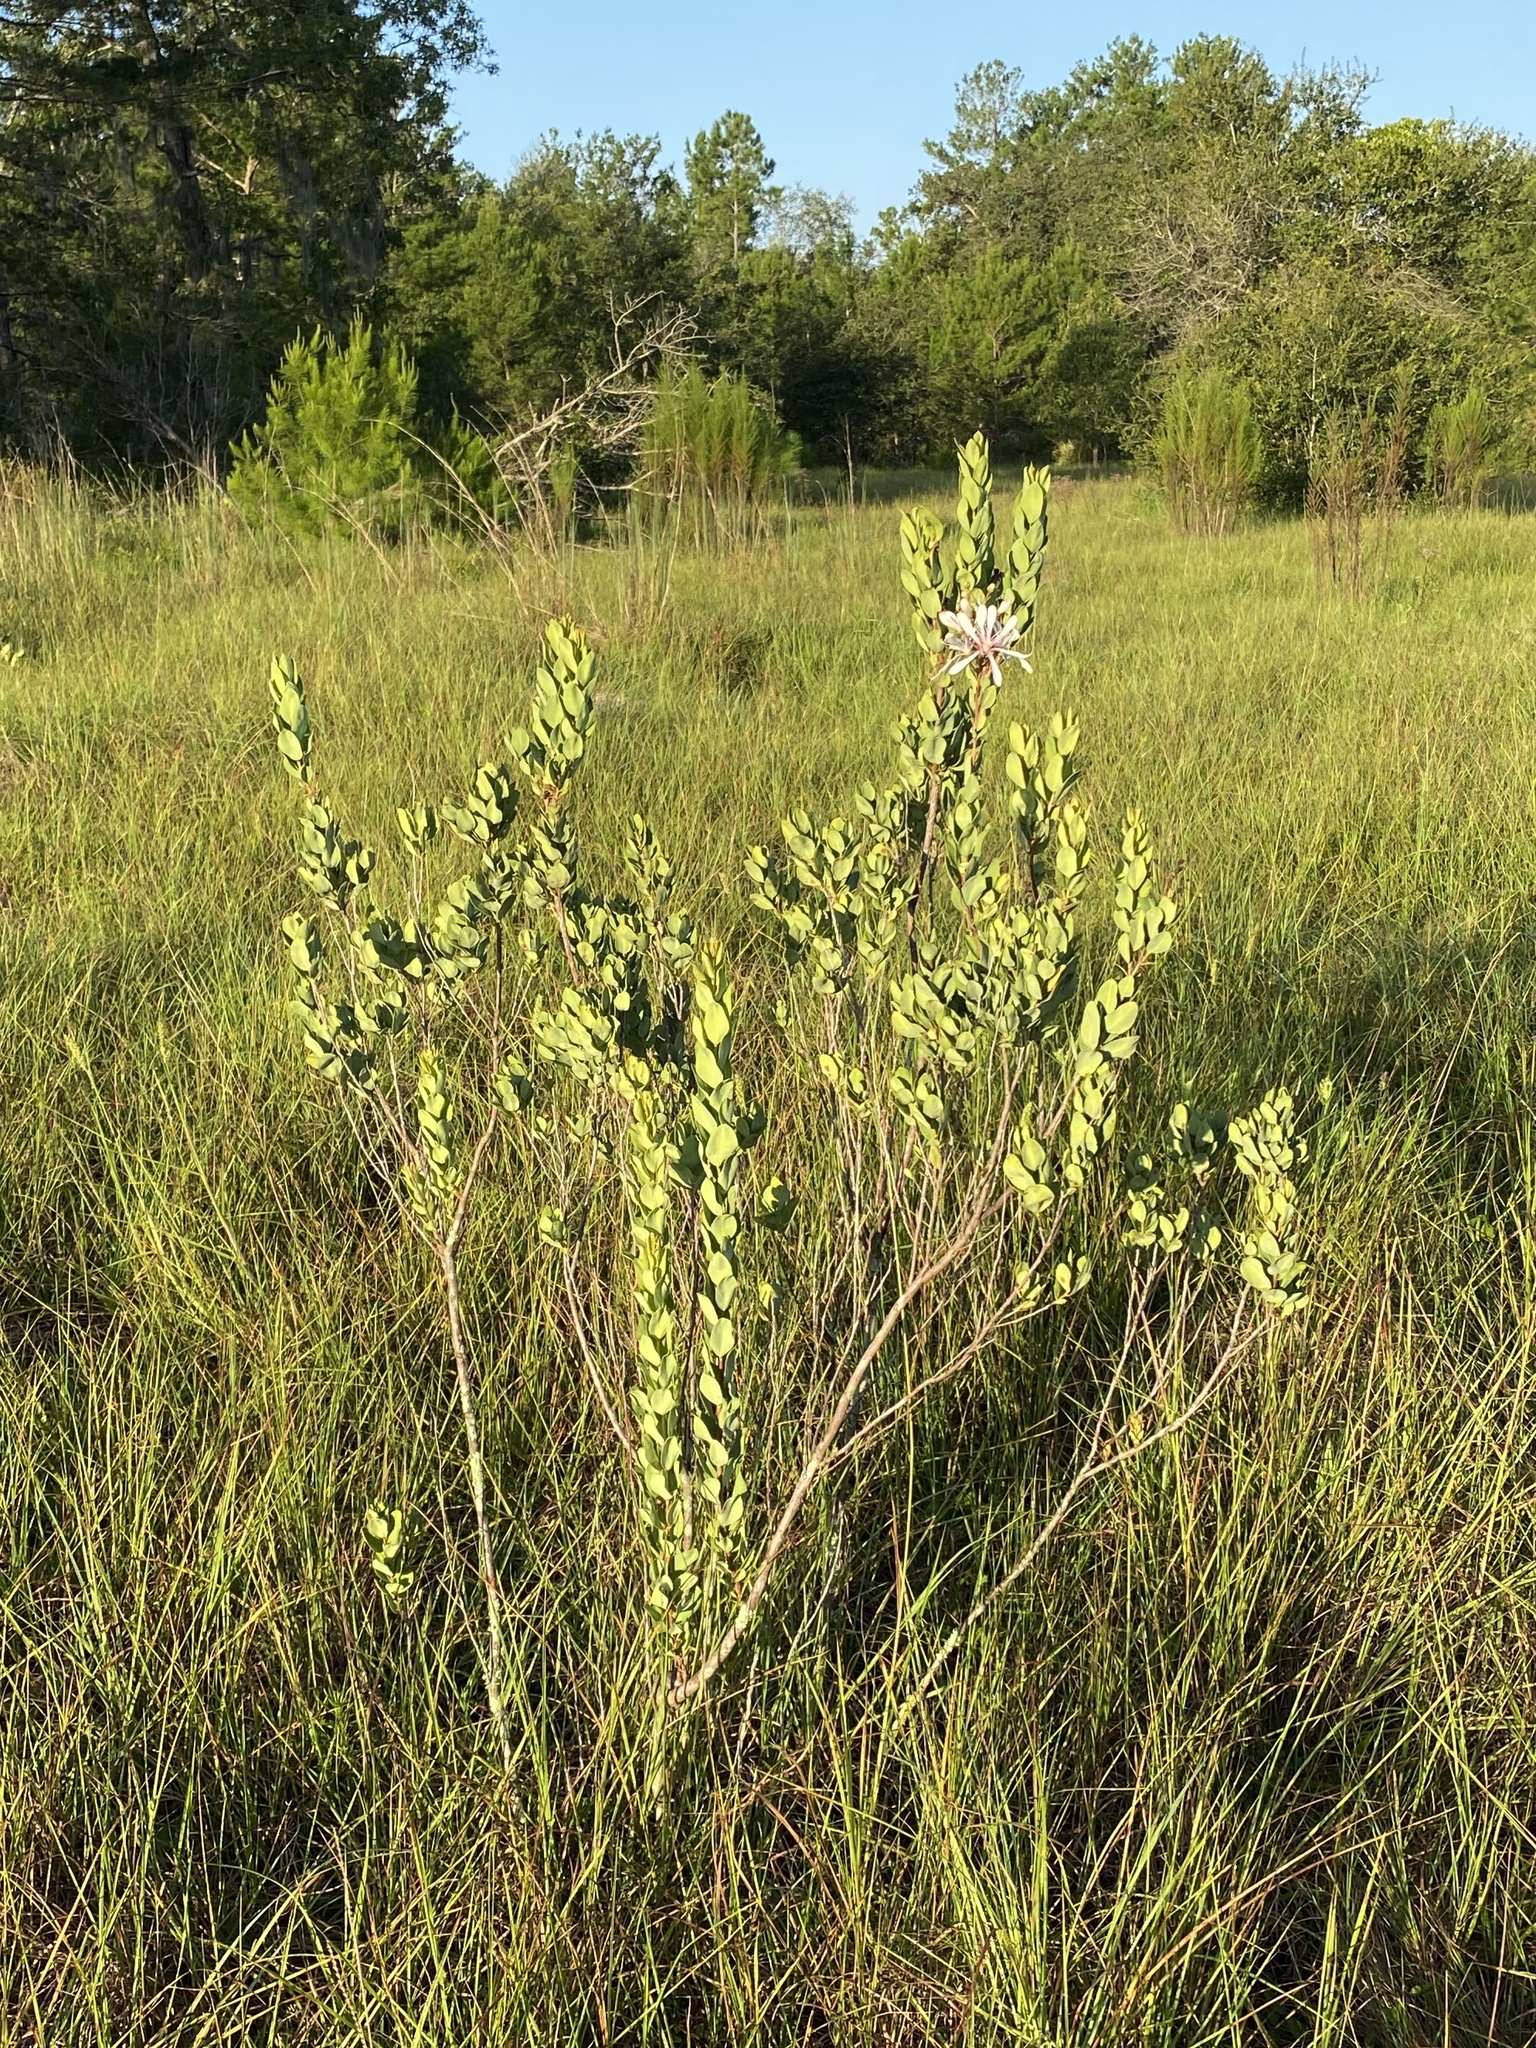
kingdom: Plantae
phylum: Tracheophyta
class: Magnoliopsida
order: Ericales
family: Ericaceae
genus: Bejaria
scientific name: Bejaria racemosa
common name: Tarflower
